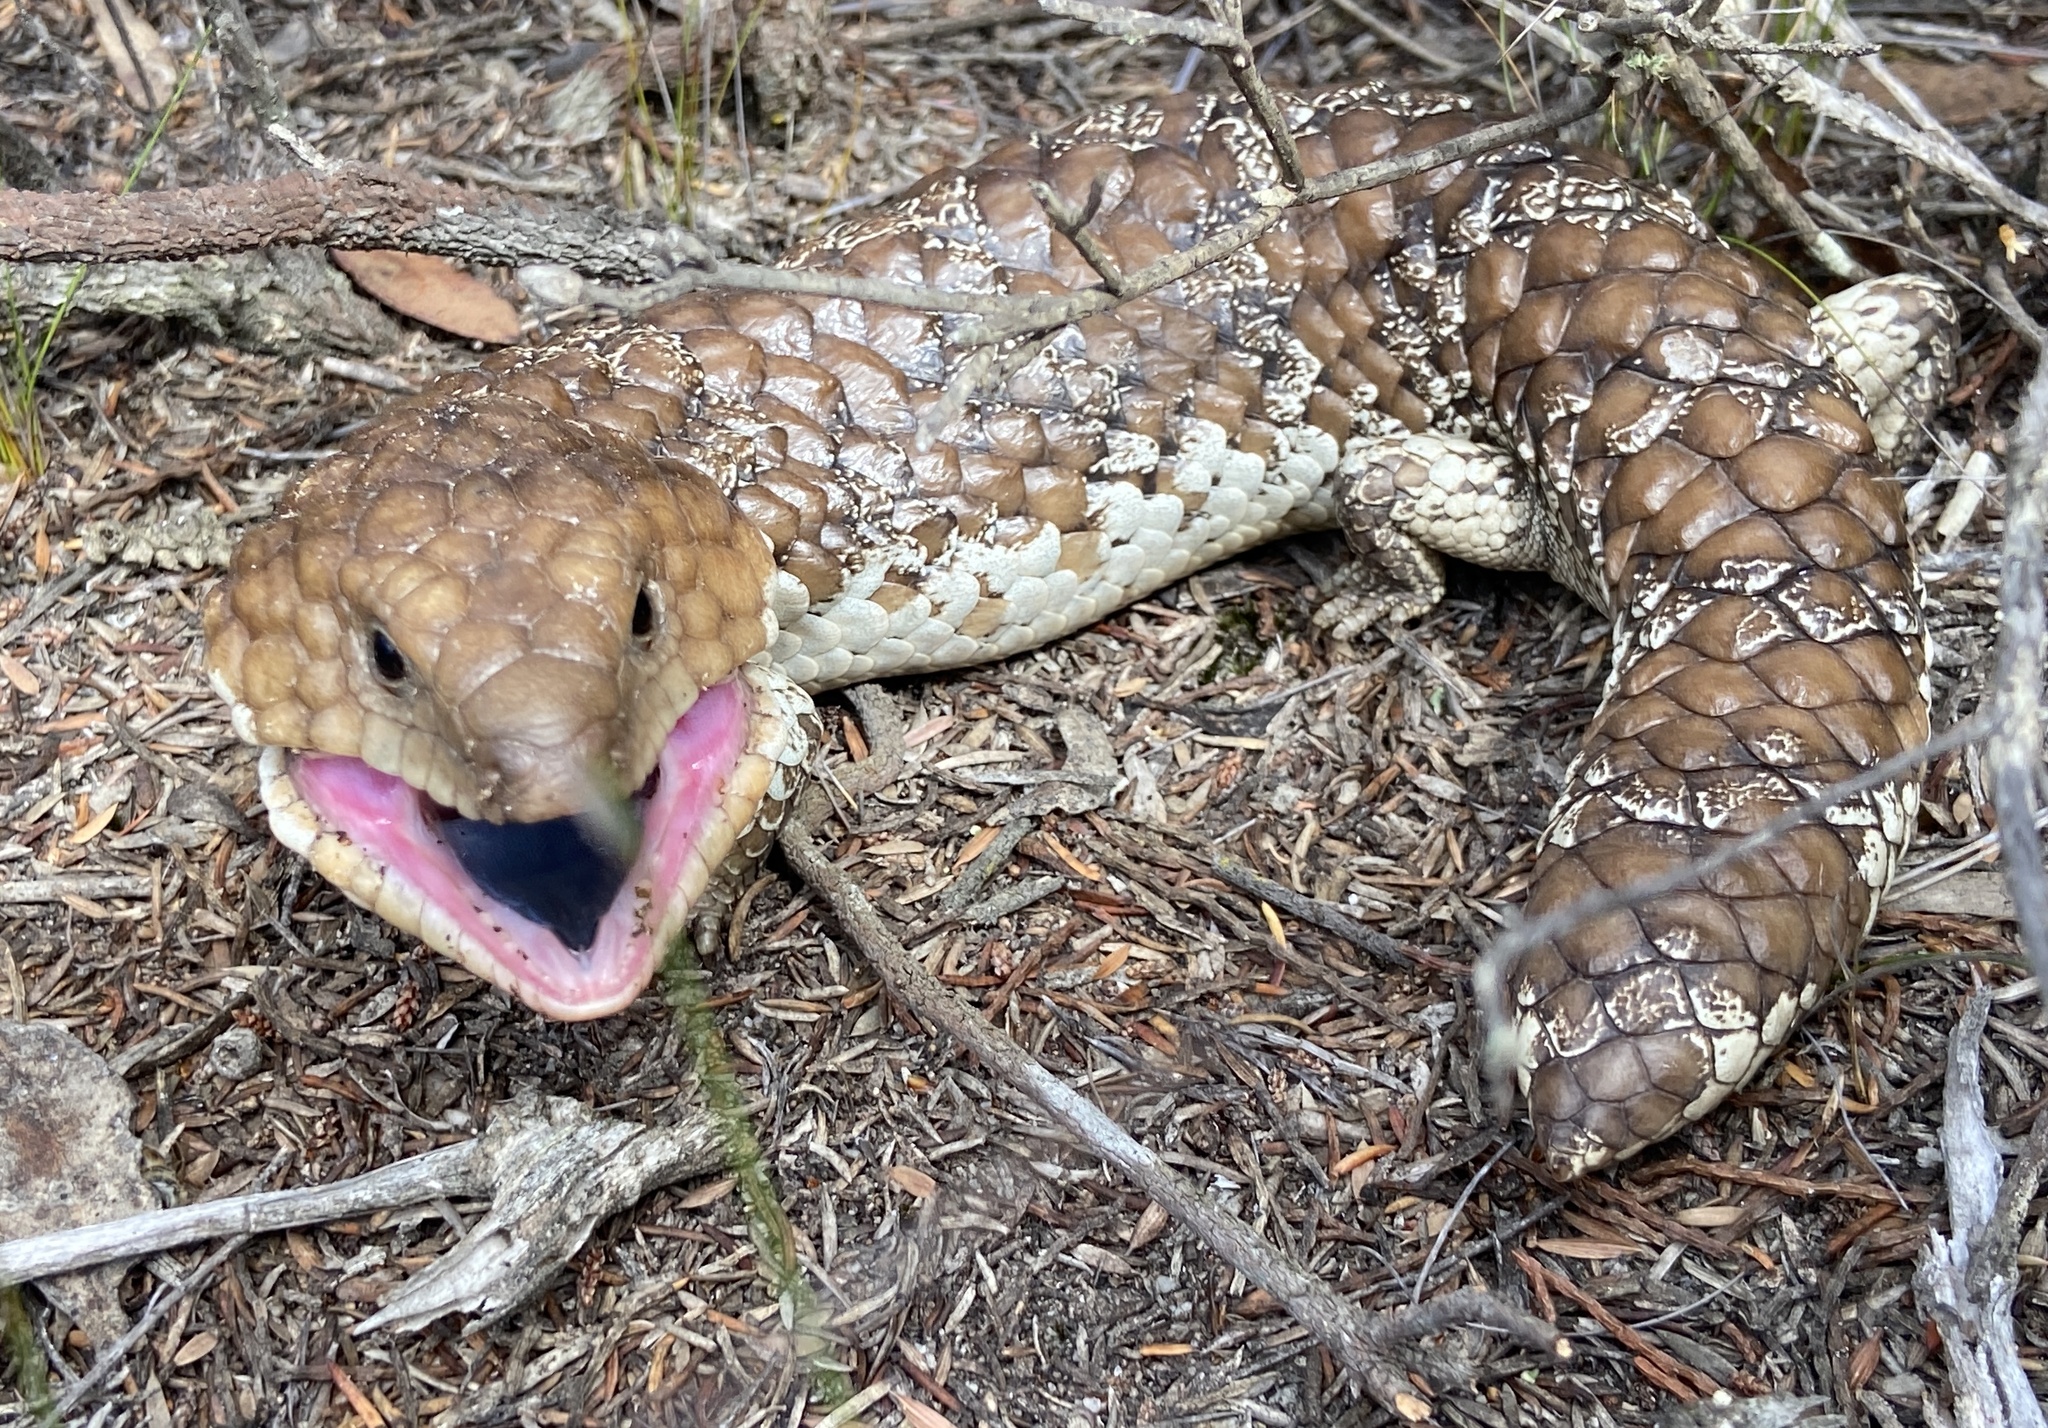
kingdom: Animalia
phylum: Chordata
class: Squamata
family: Scincidae
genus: Tiliqua
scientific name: Tiliqua rugosa
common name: Pinecone lizard
